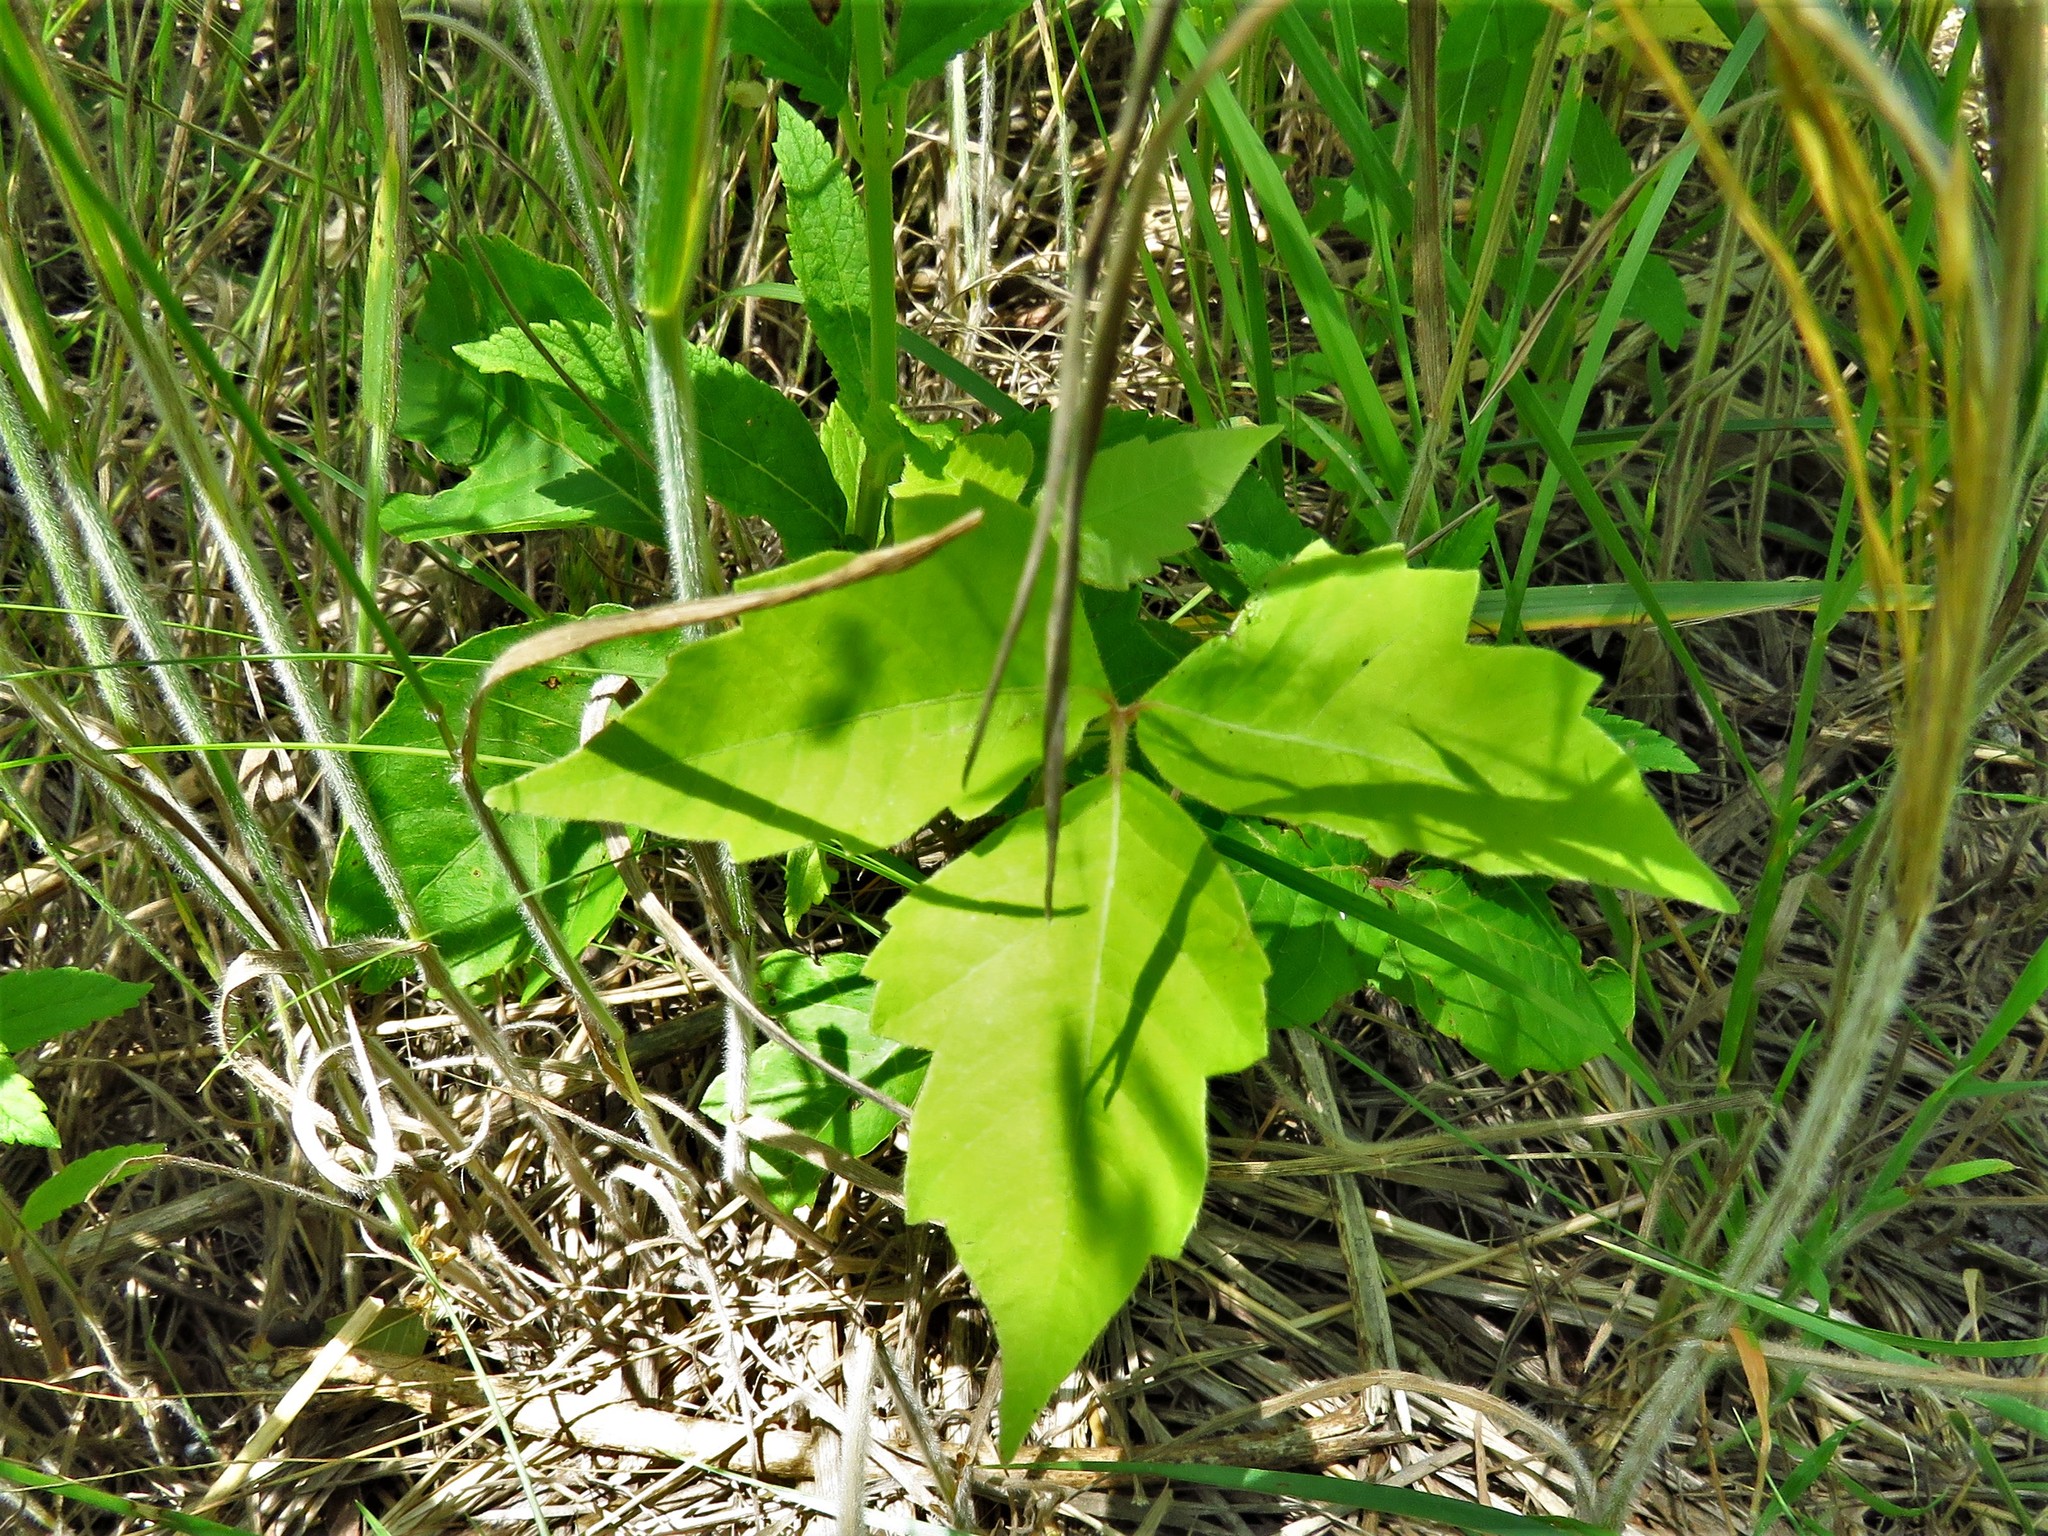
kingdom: Plantae
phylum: Tracheophyta
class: Magnoliopsida
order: Sapindales
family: Anacardiaceae
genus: Toxicodendron
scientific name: Toxicodendron radicans
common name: Poison ivy
